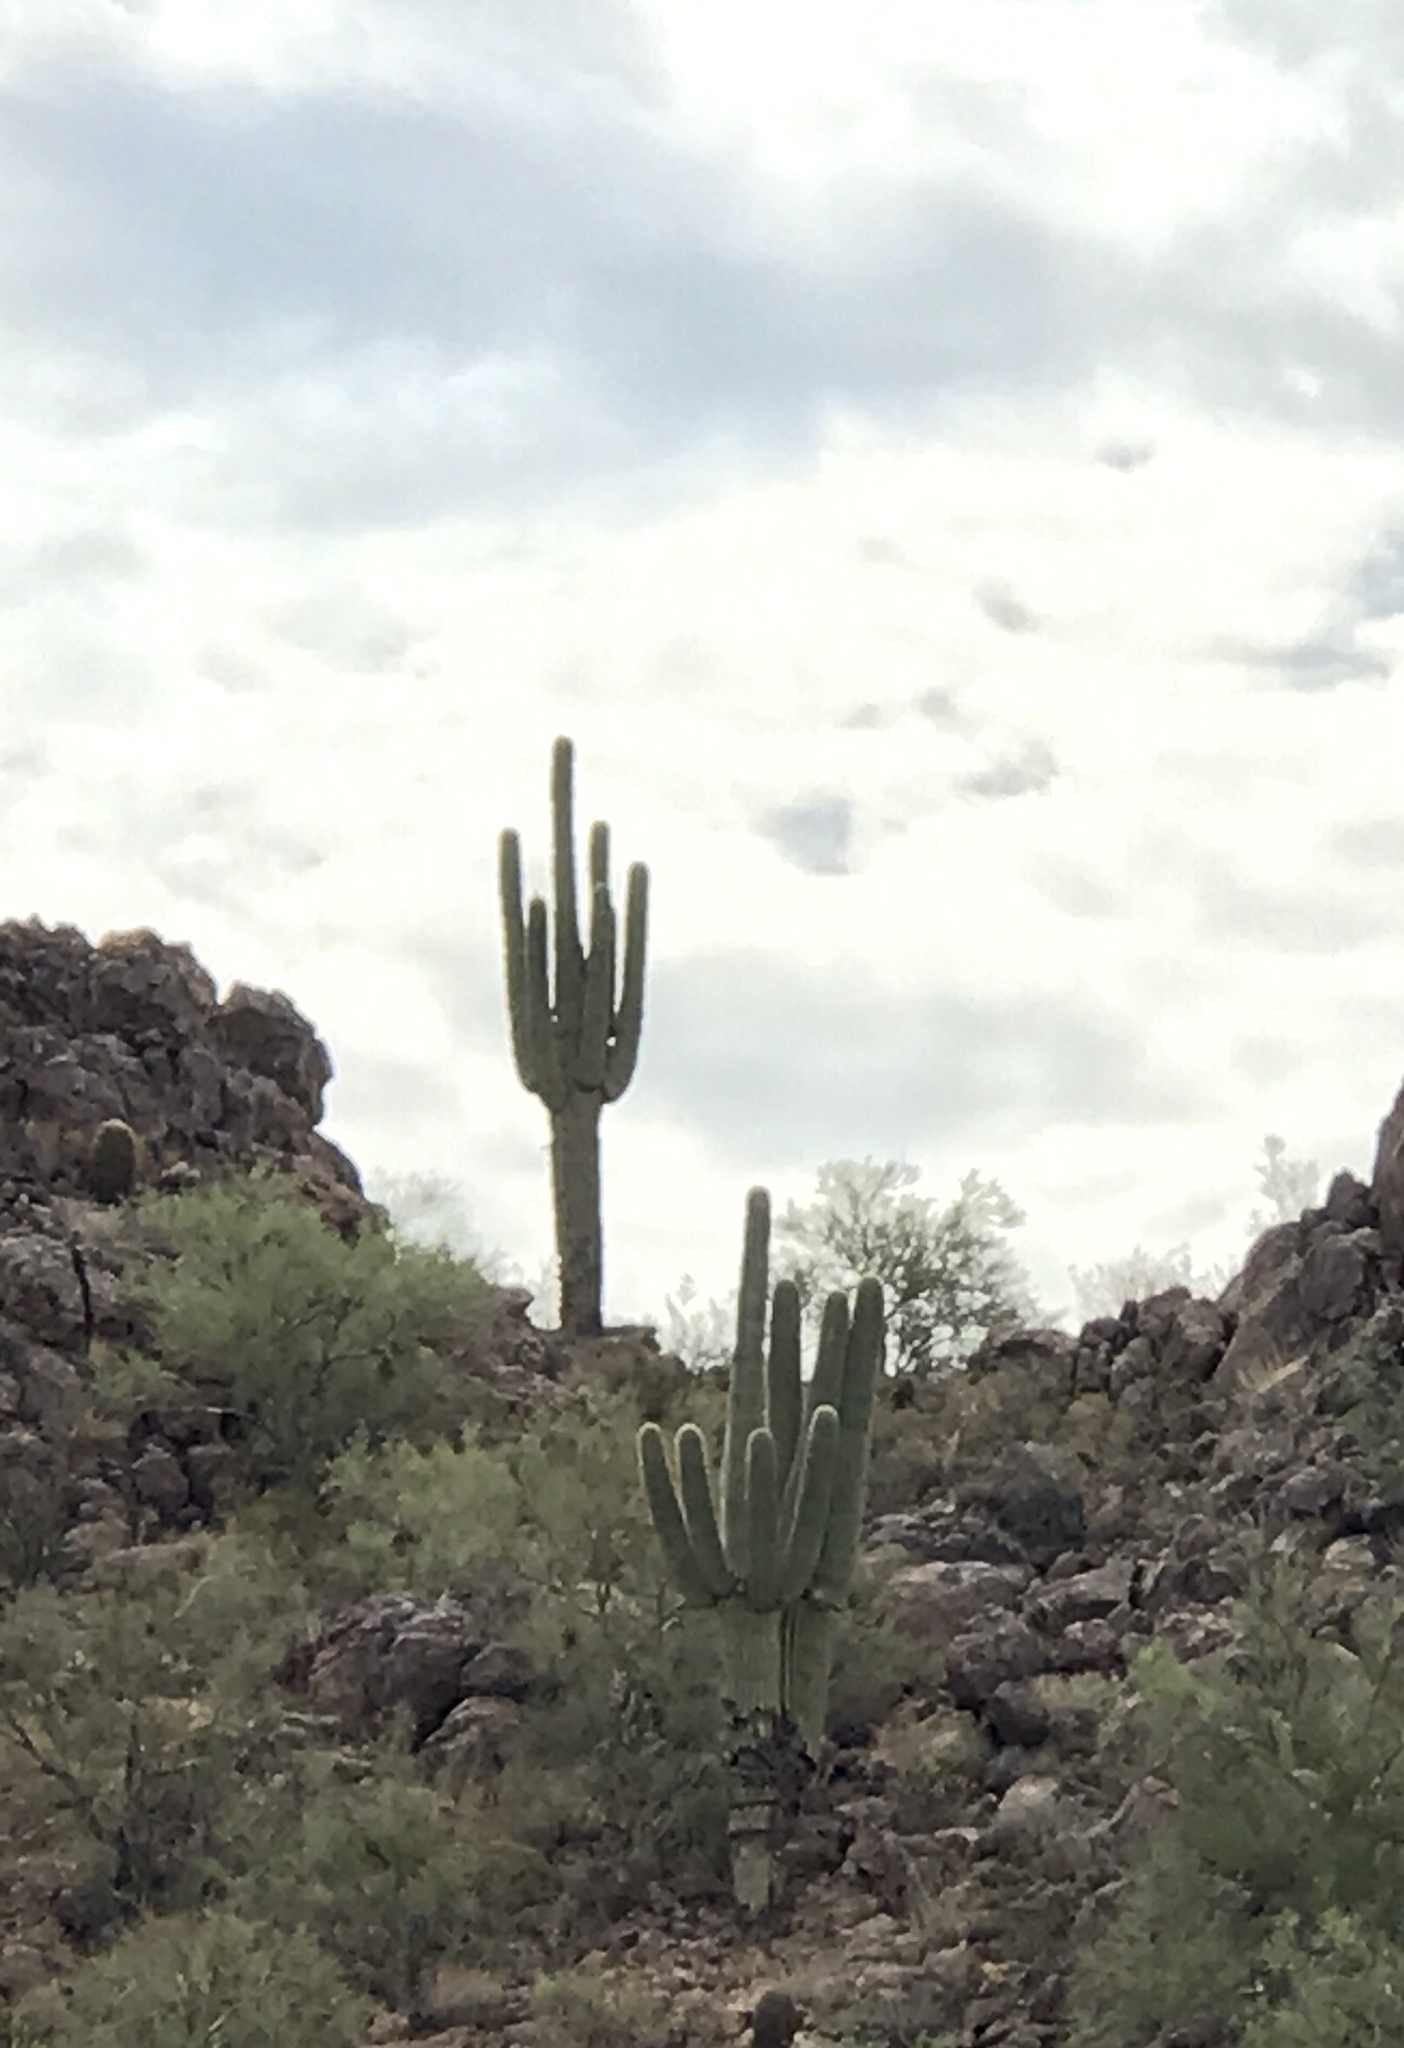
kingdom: Plantae
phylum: Tracheophyta
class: Magnoliopsida
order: Caryophyllales
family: Cactaceae
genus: Carnegiea
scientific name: Carnegiea gigantea
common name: Saguaro
